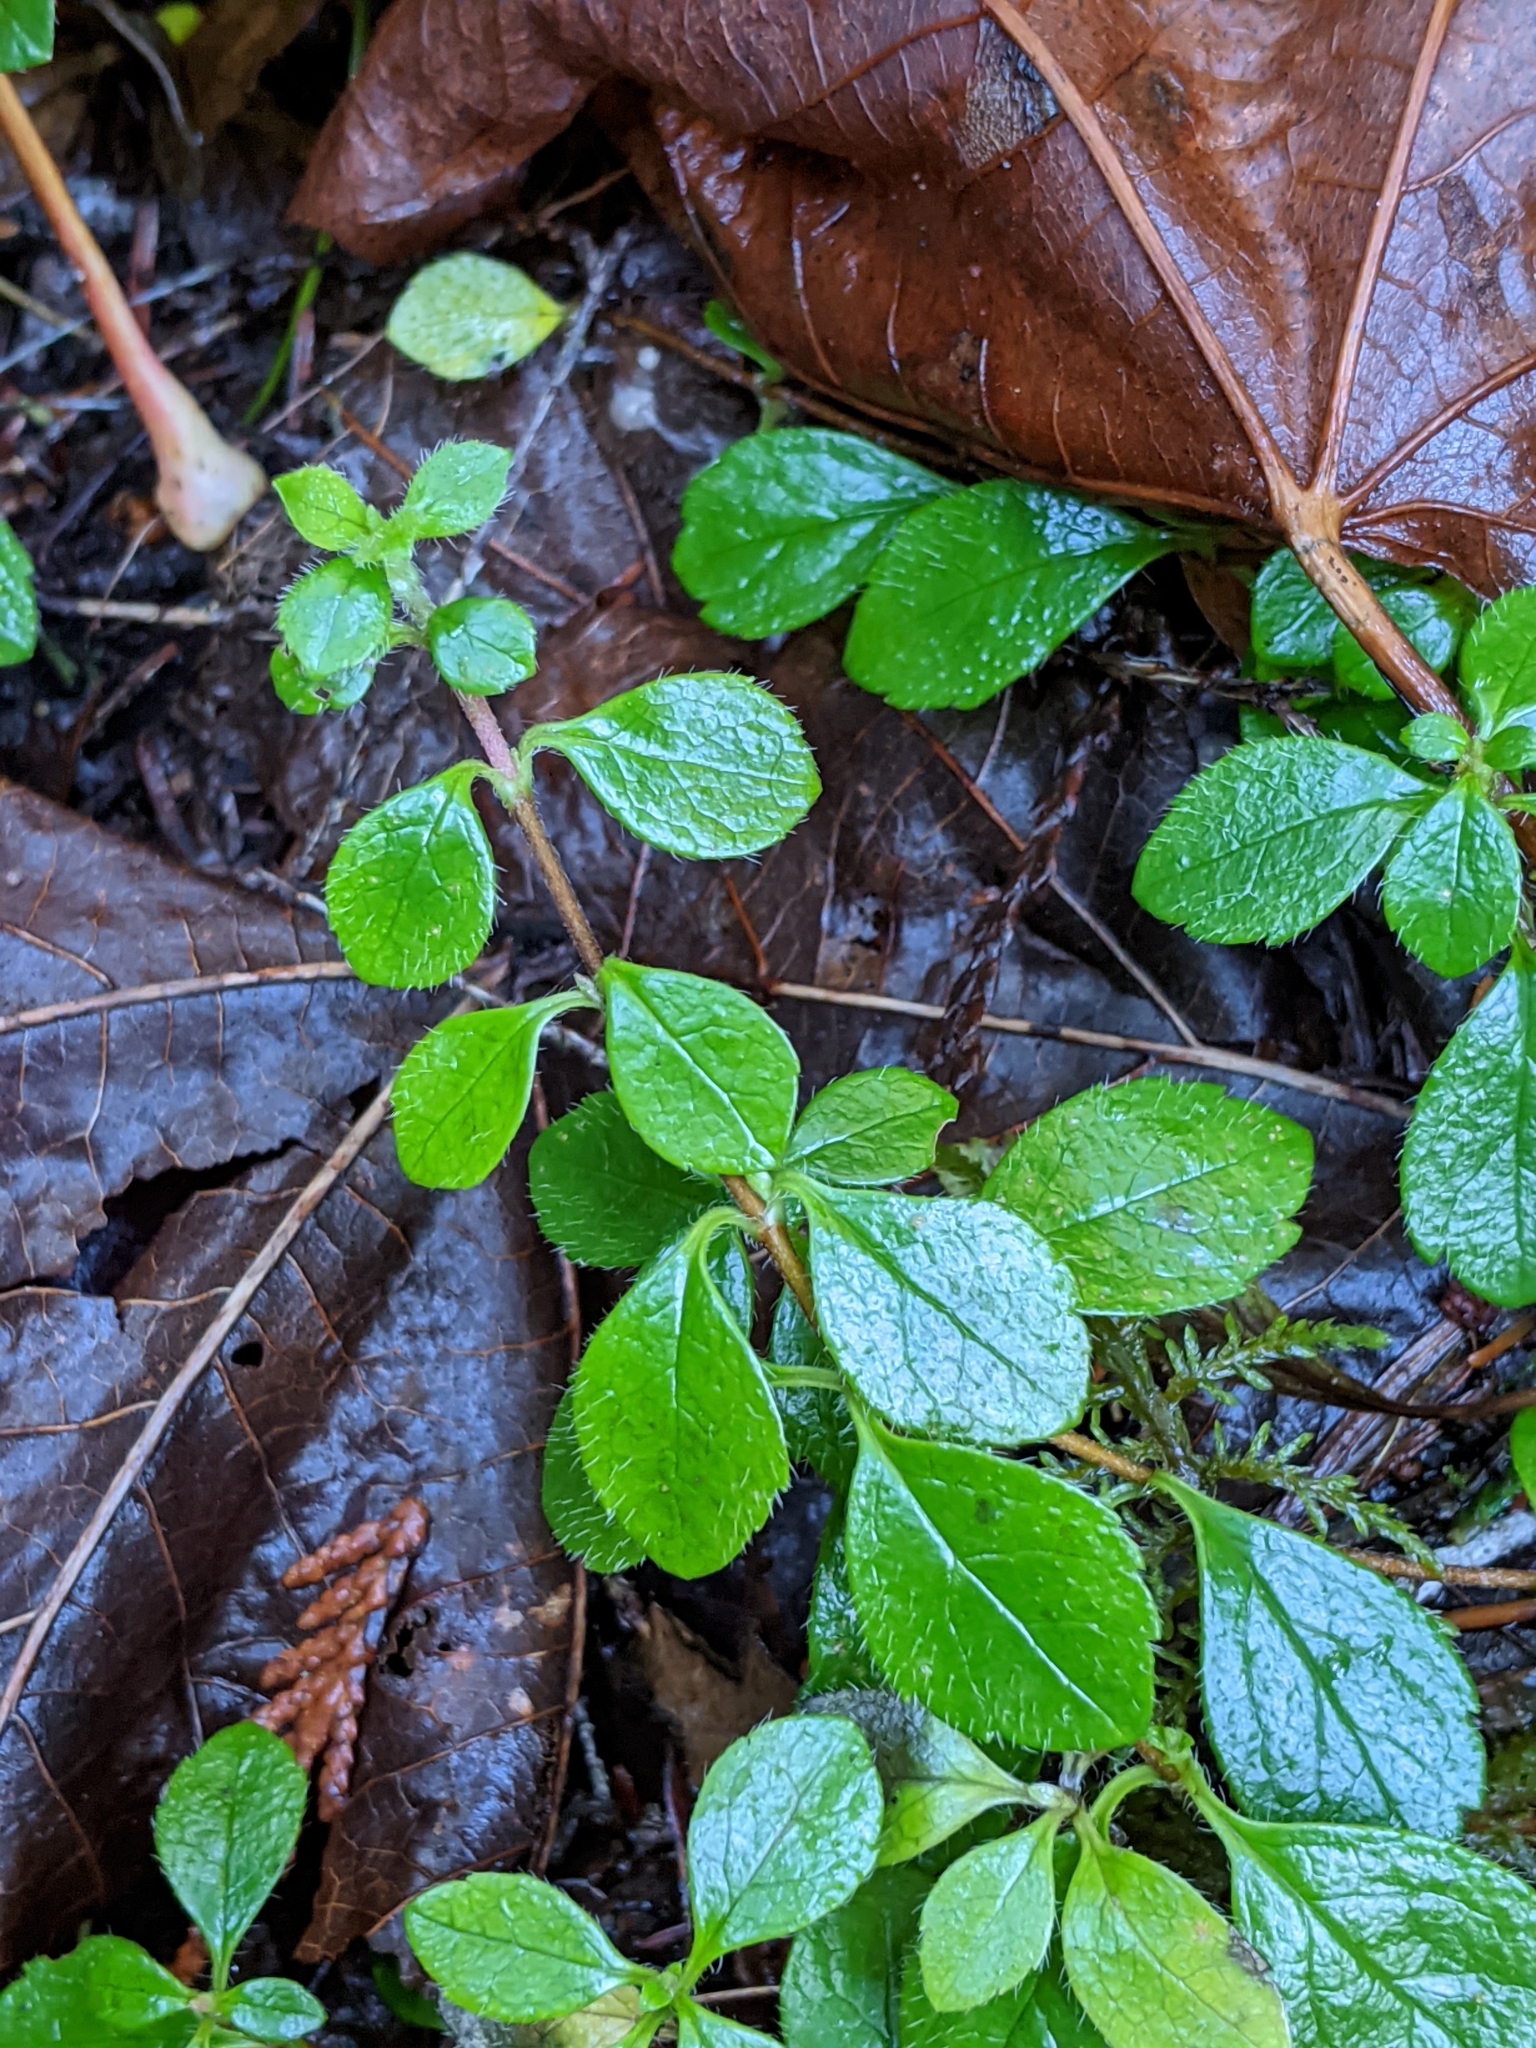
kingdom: Plantae
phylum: Tracheophyta
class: Magnoliopsida
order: Dipsacales
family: Caprifoliaceae
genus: Linnaea
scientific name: Linnaea borealis
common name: Twinflower
